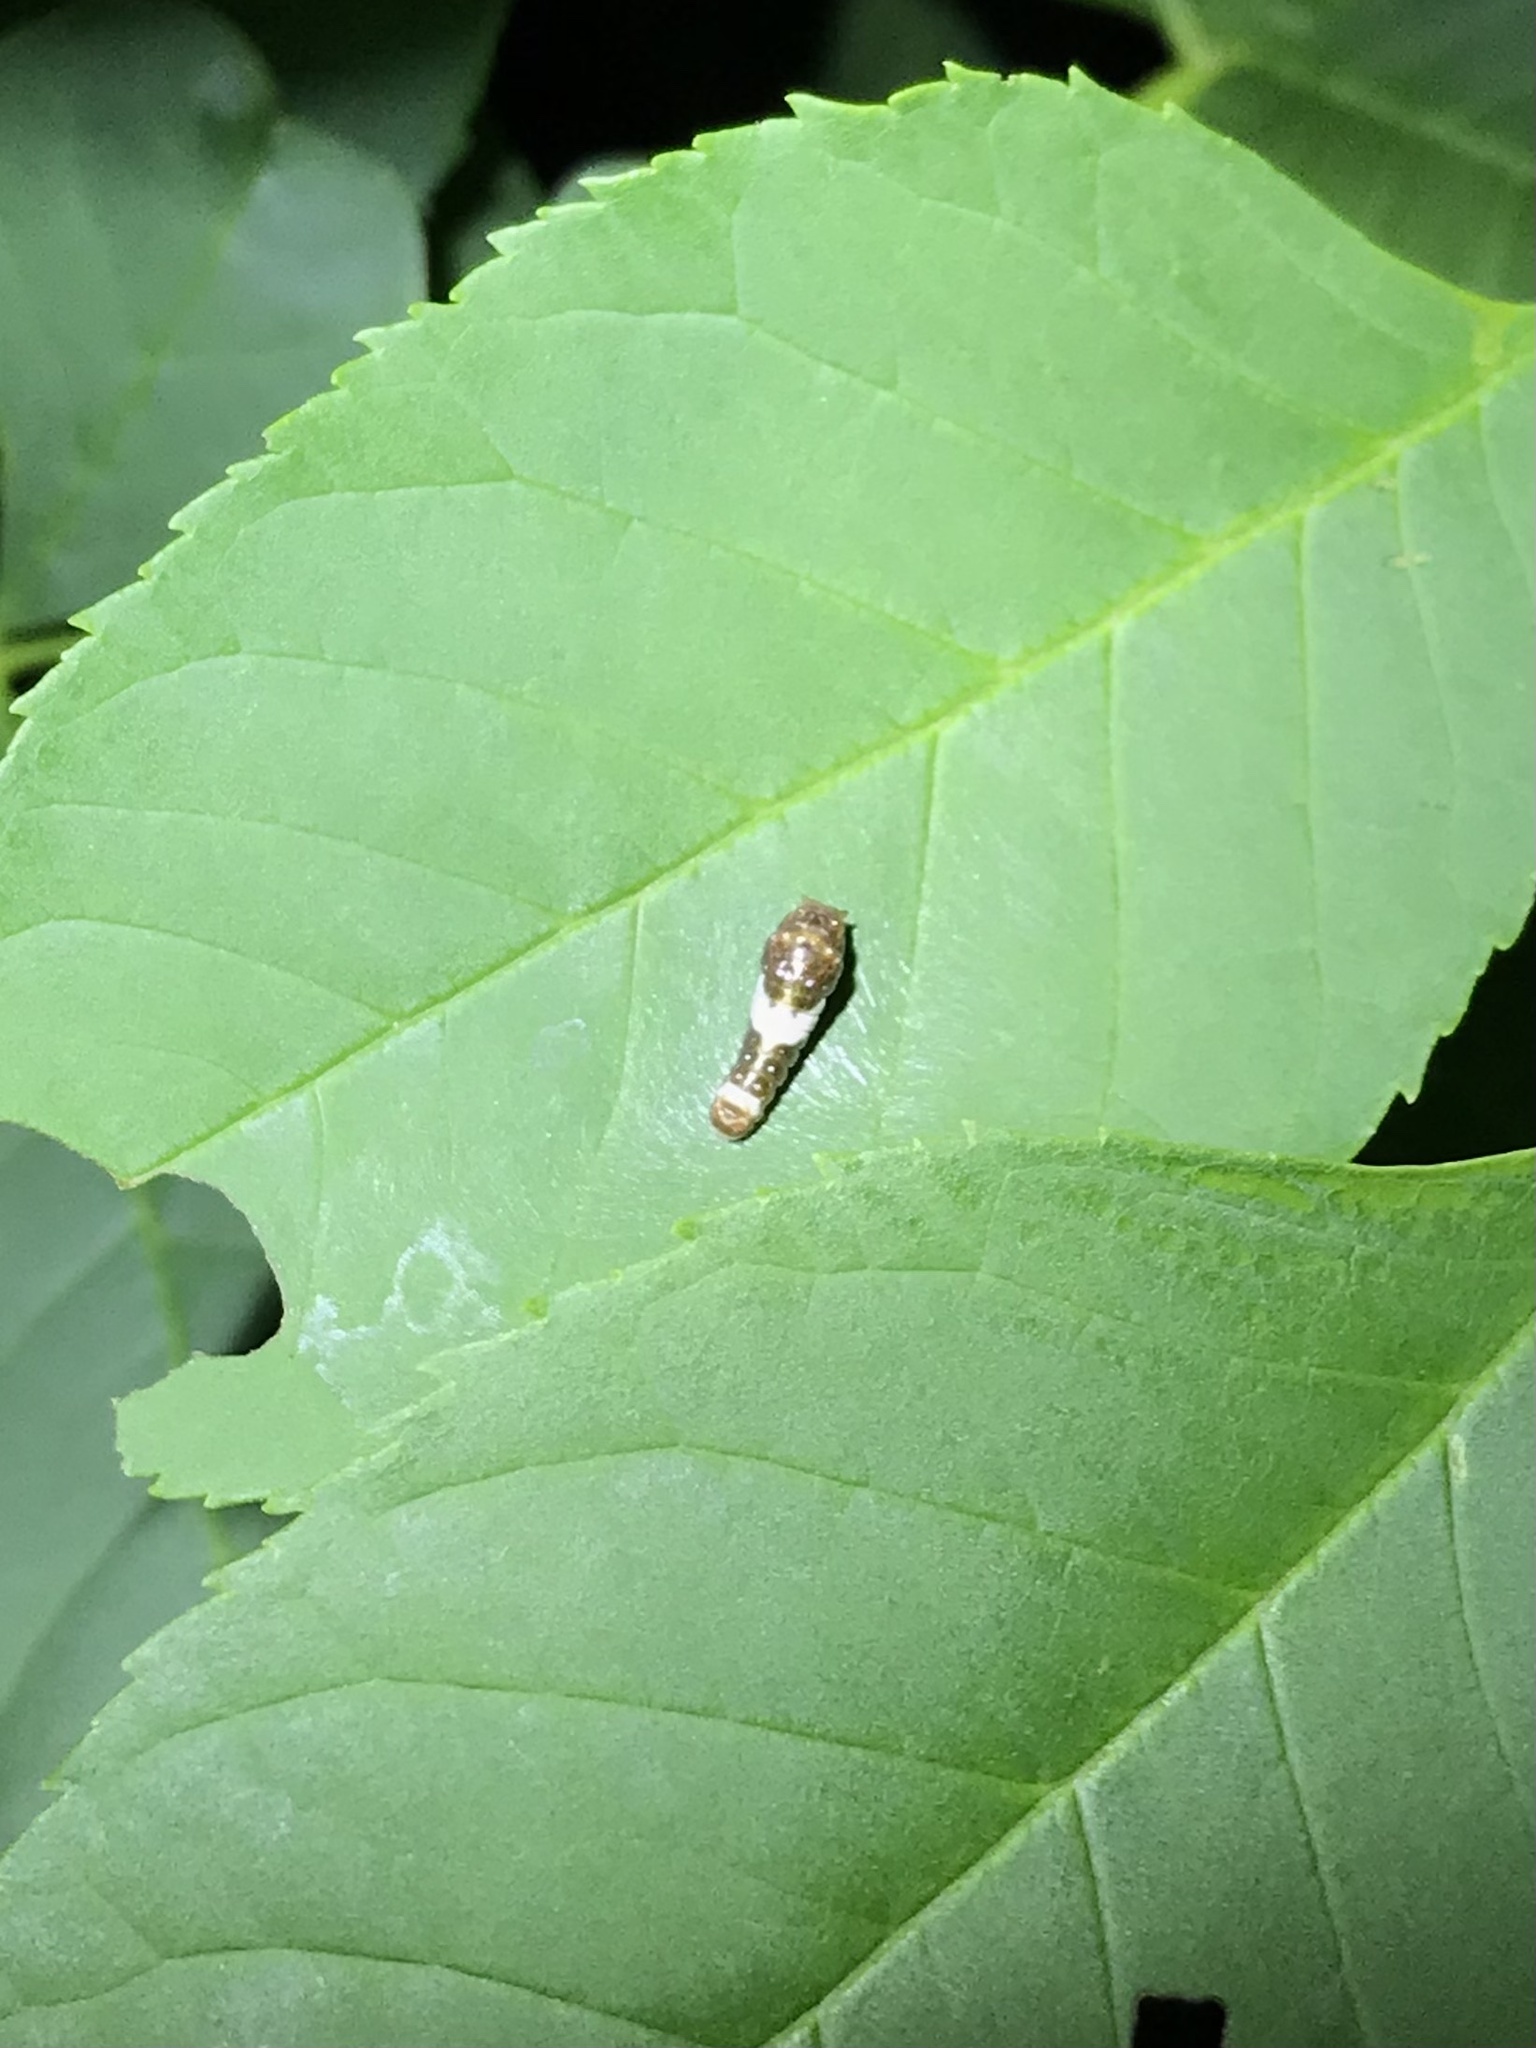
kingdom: Animalia
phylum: Arthropoda
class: Insecta
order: Lepidoptera
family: Papilionidae
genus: Papilio
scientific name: Papilio glaucus
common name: Tiger swallowtail
